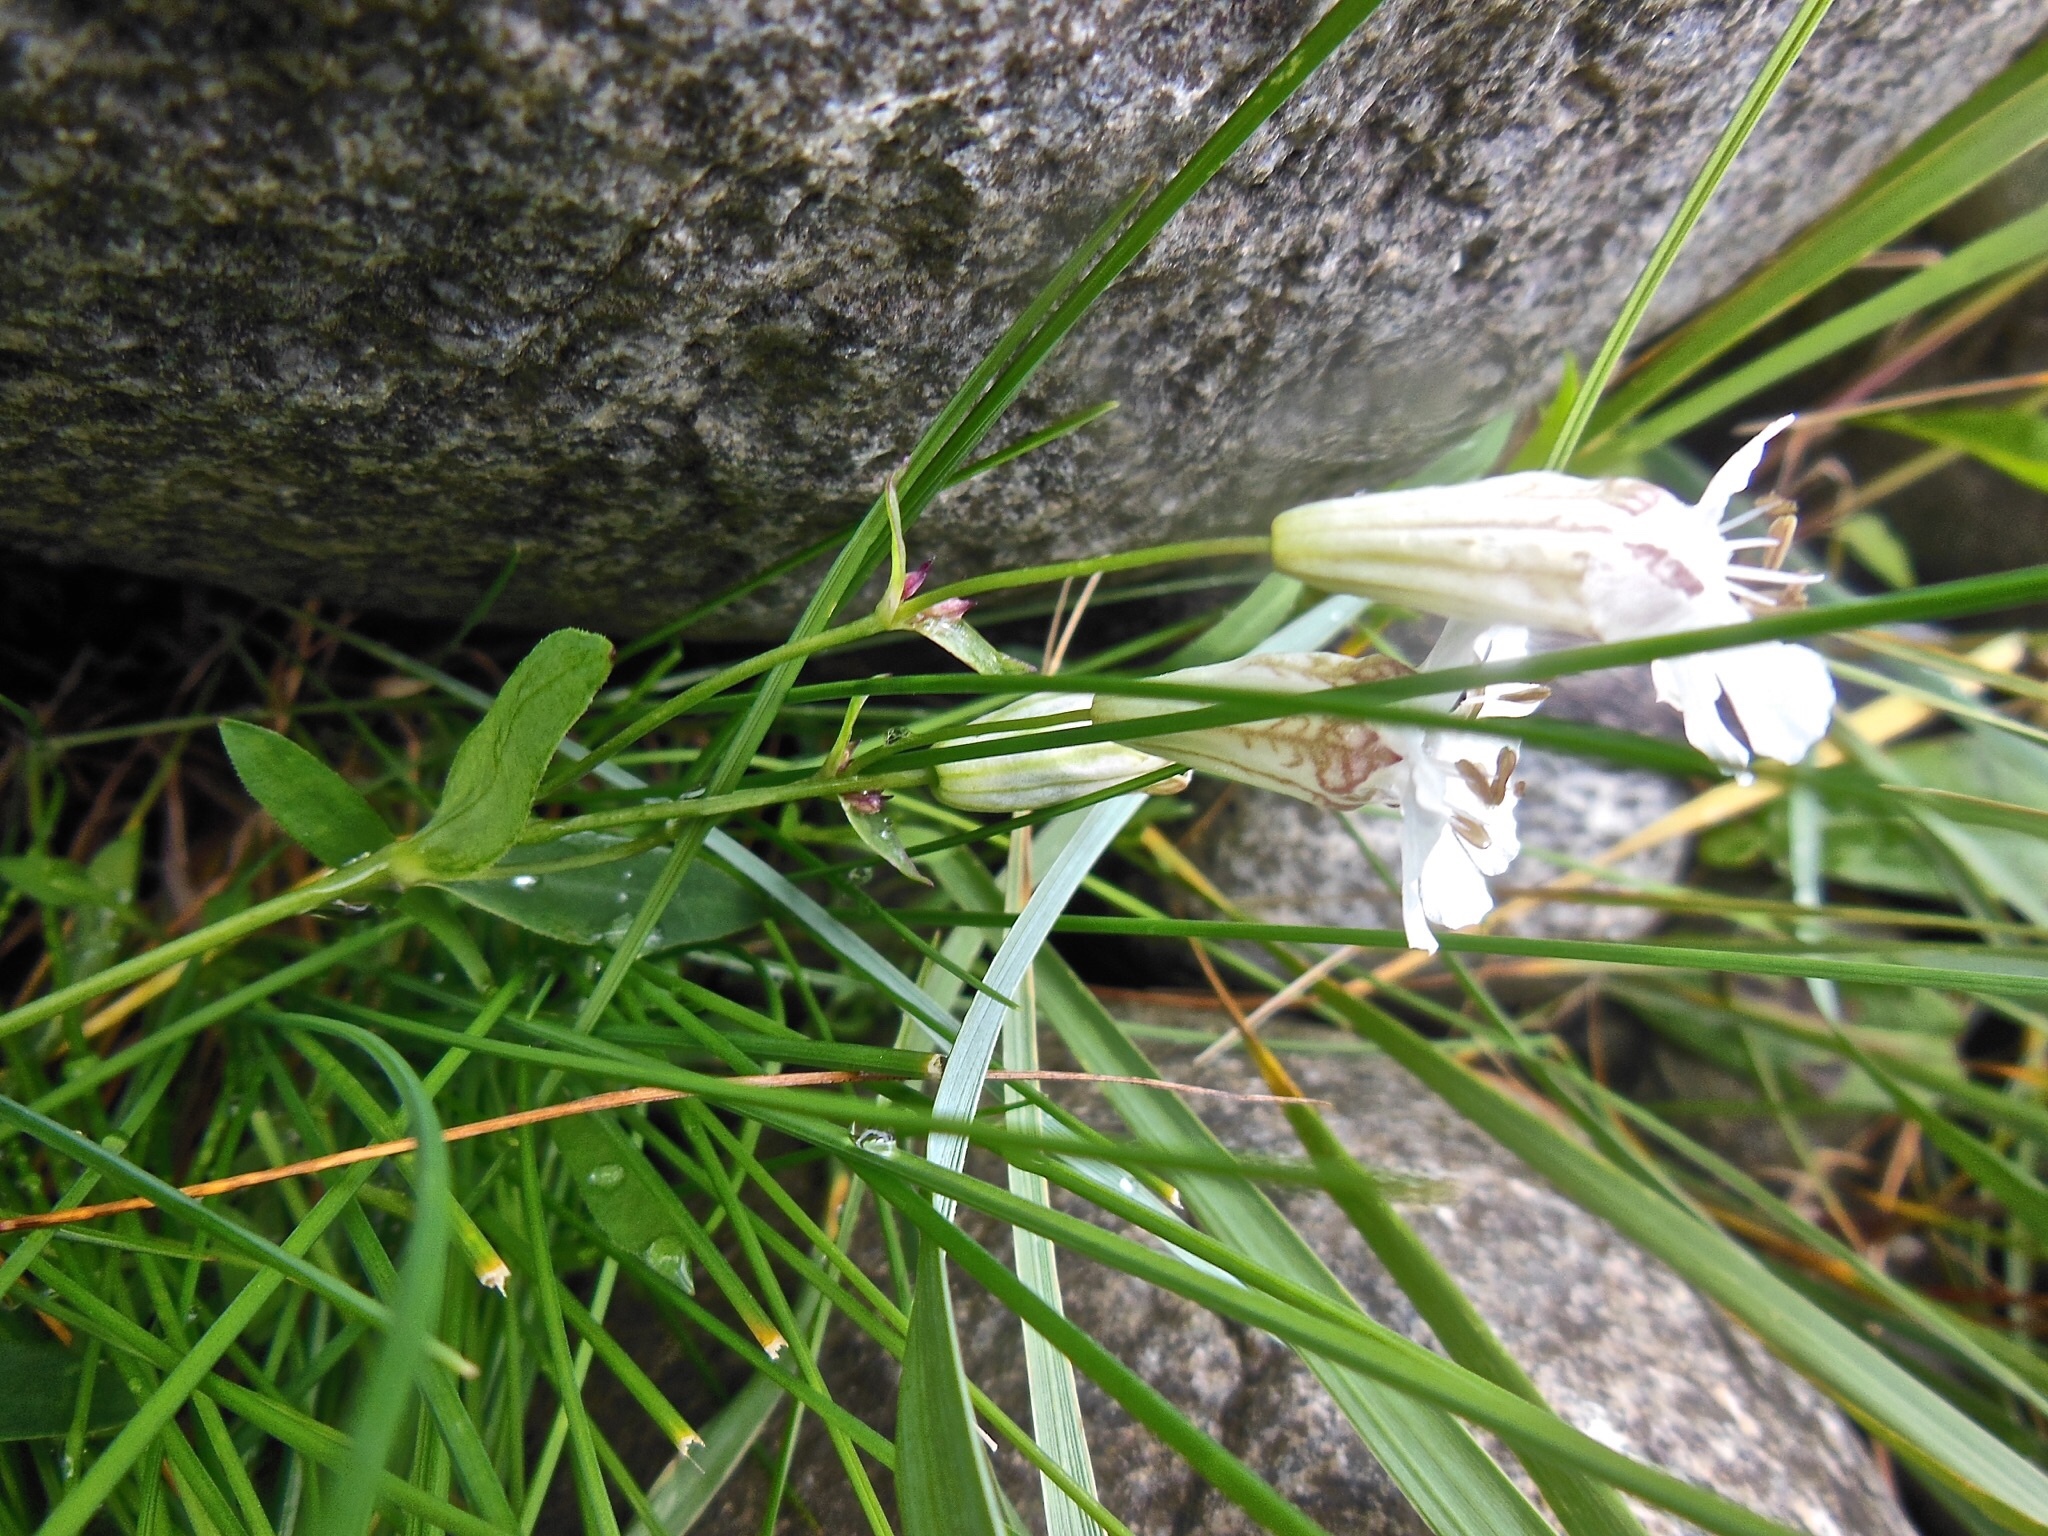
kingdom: Plantae
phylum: Tracheophyta
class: Magnoliopsida
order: Caryophyllales
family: Caryophyllaceae
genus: Silene
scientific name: Silene uniflora
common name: Sea campion
